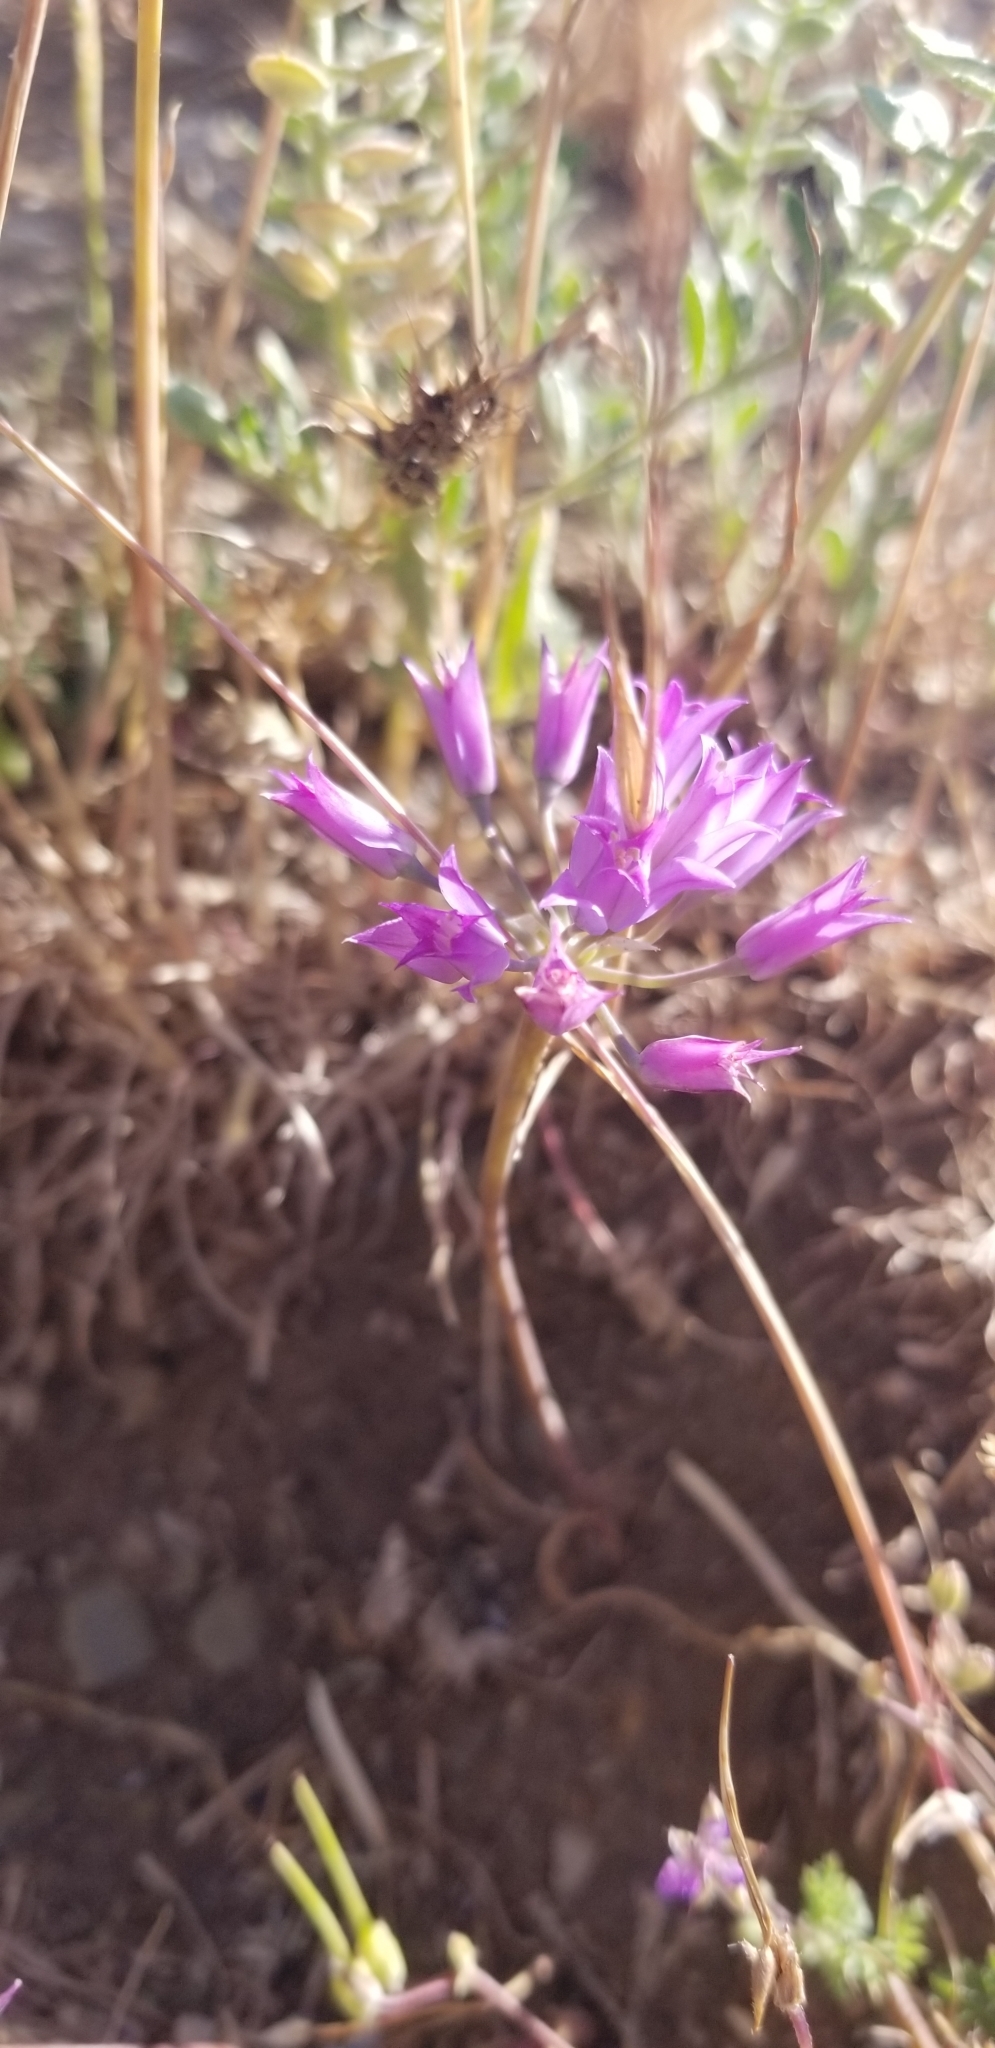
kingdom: Plantae
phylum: Tracheophyta
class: Liliopsida
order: Asparagales
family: Amaryllidaceae
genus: Allium
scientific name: Allium acuminatum
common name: Hooker's onion
